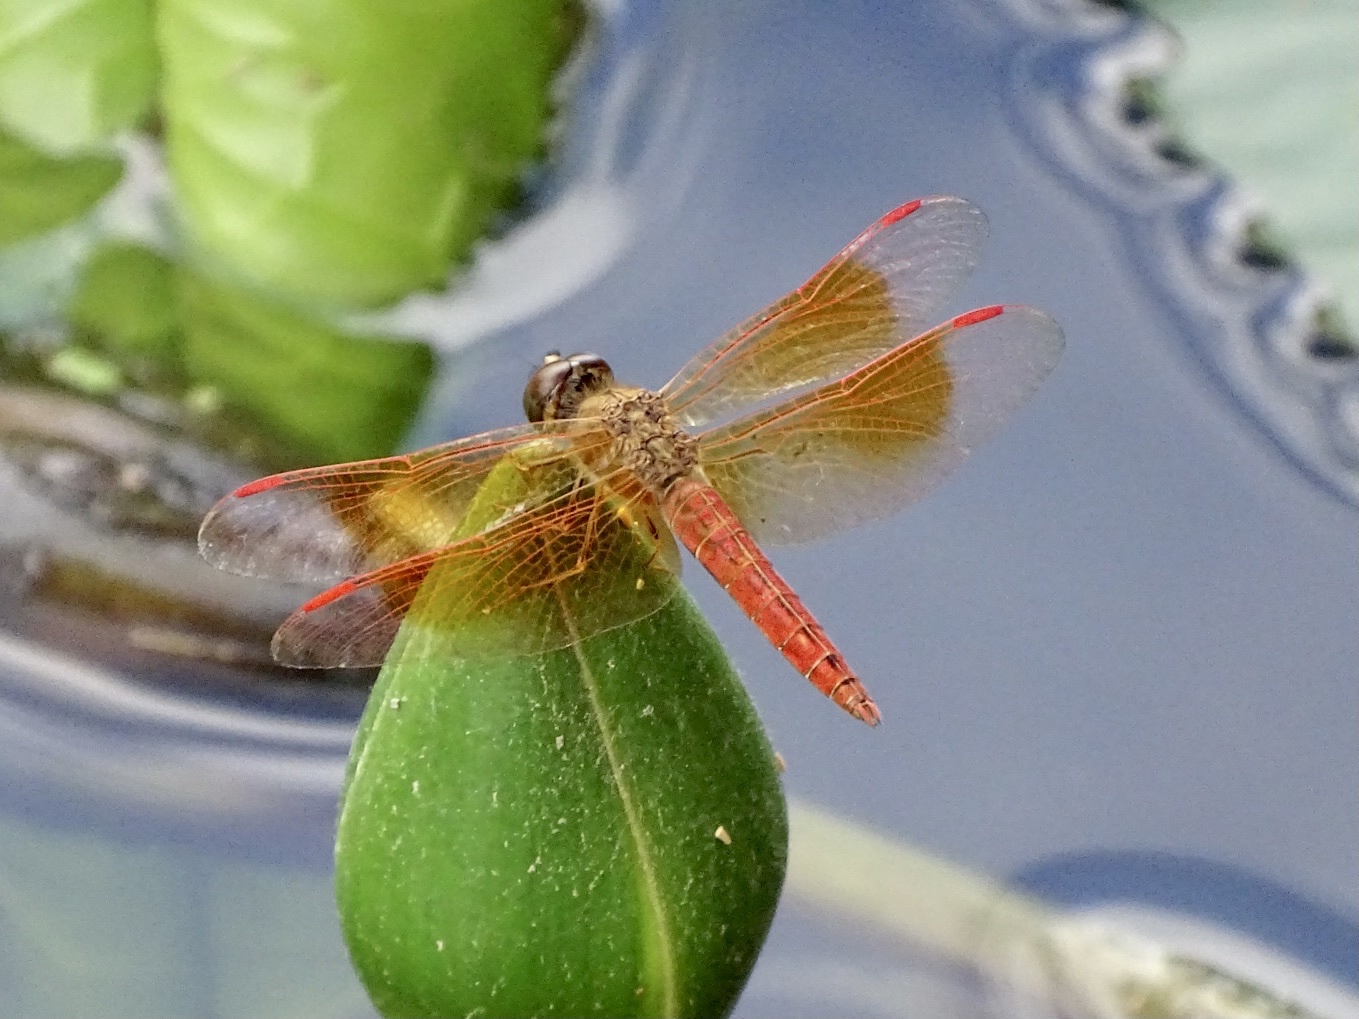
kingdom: Animalia
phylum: Arthropoda
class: Insecta
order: Odonata
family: Libellulidae
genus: Brachythemis
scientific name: Brachythemis contaminata
